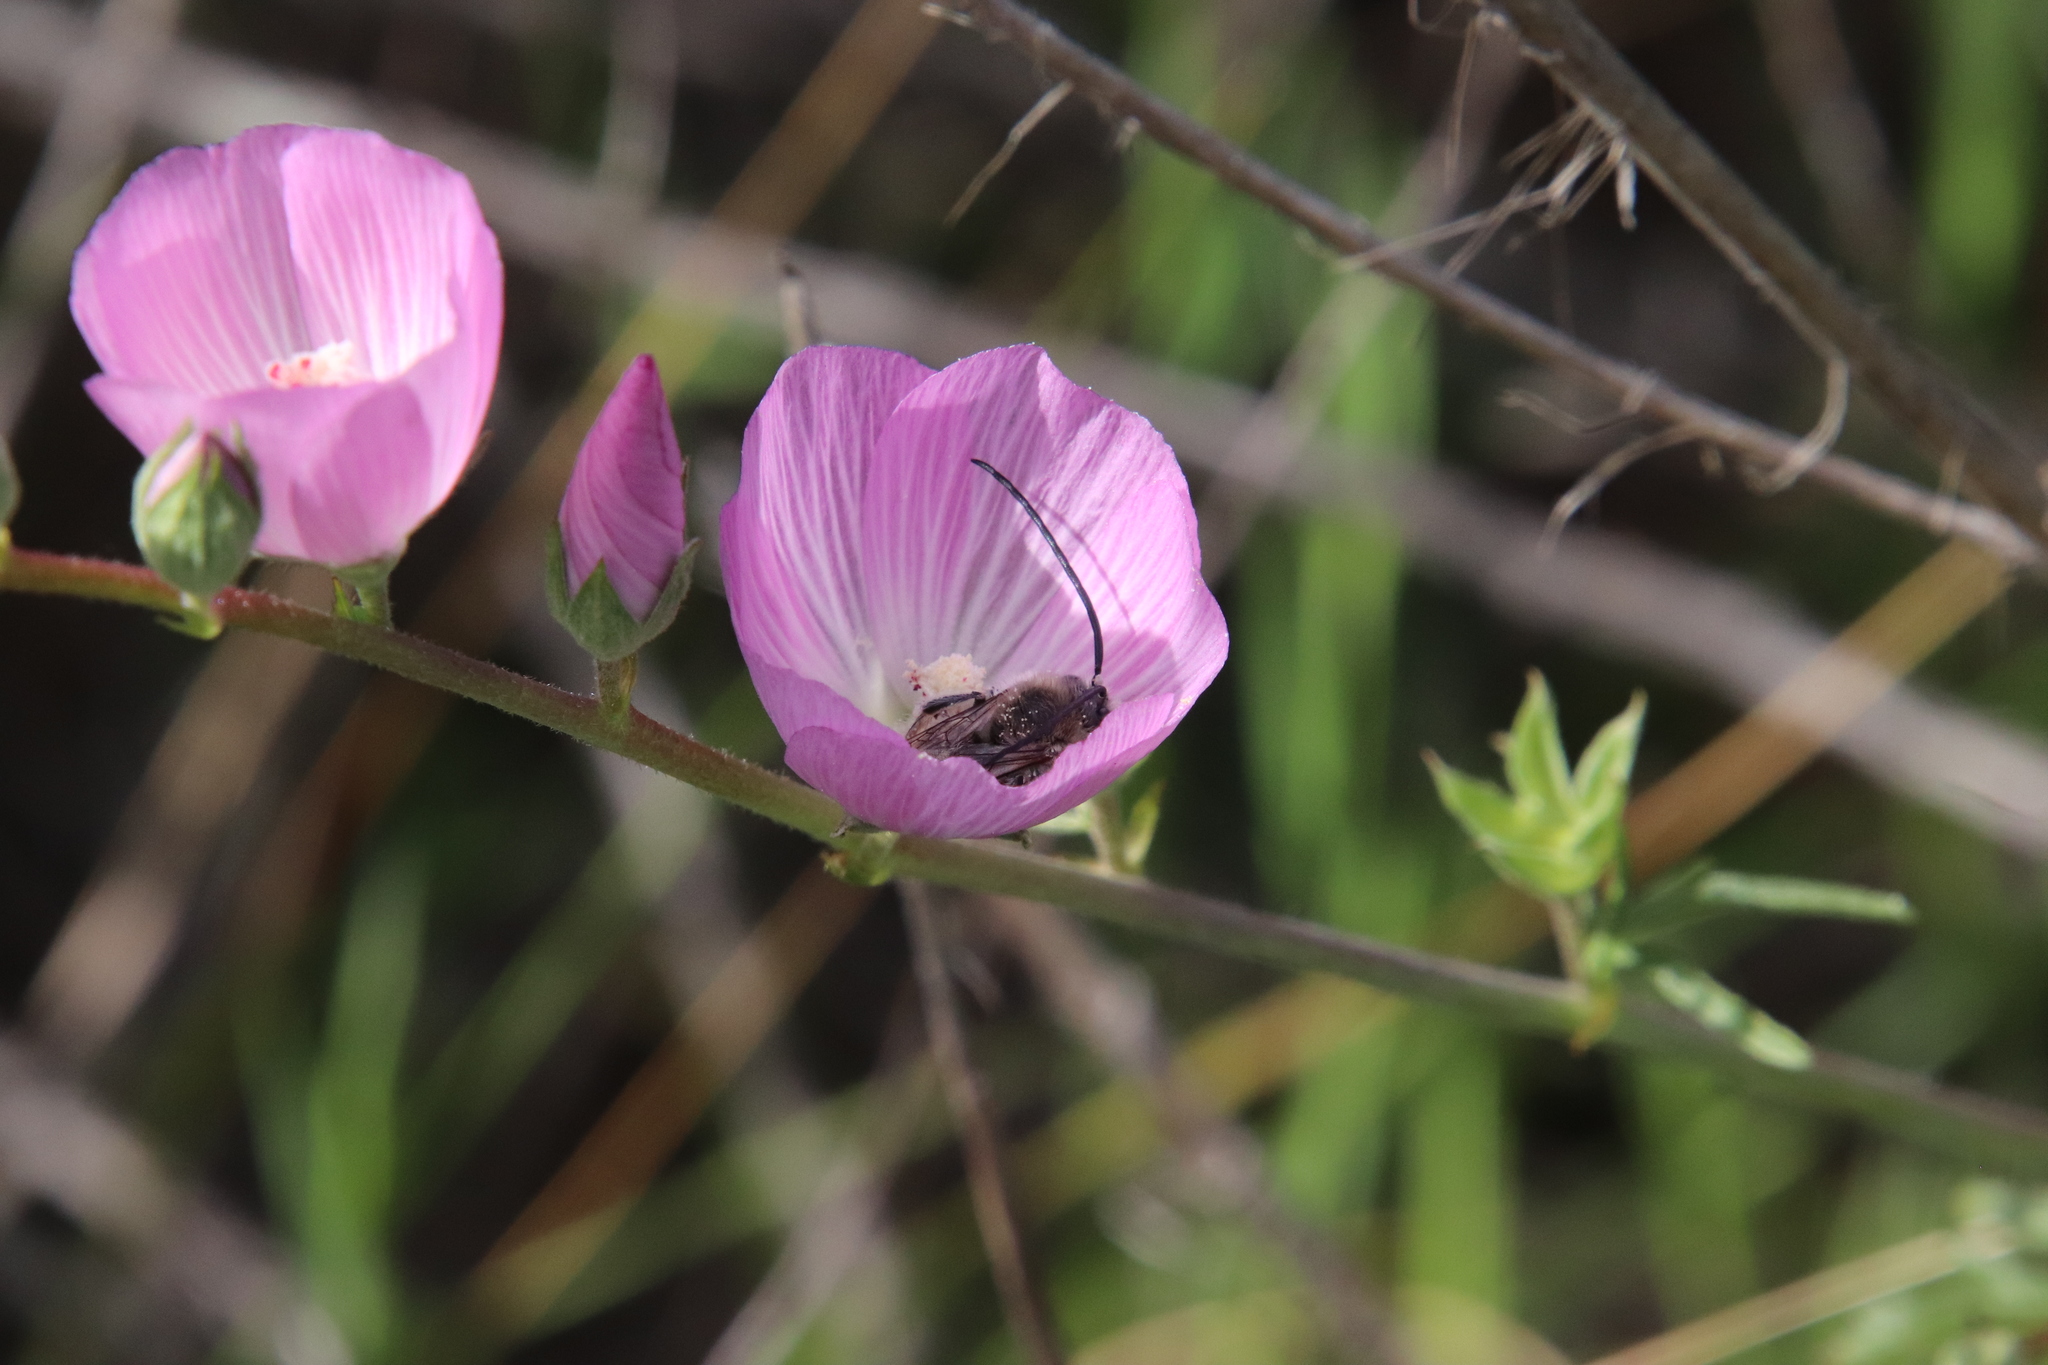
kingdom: Plantae
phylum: Tracheophyta
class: Magnoliopsida
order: Malvales
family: Malvaceae
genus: Sidalcea
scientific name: Sidalcea sparsifolia
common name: Southern checkerbloom
